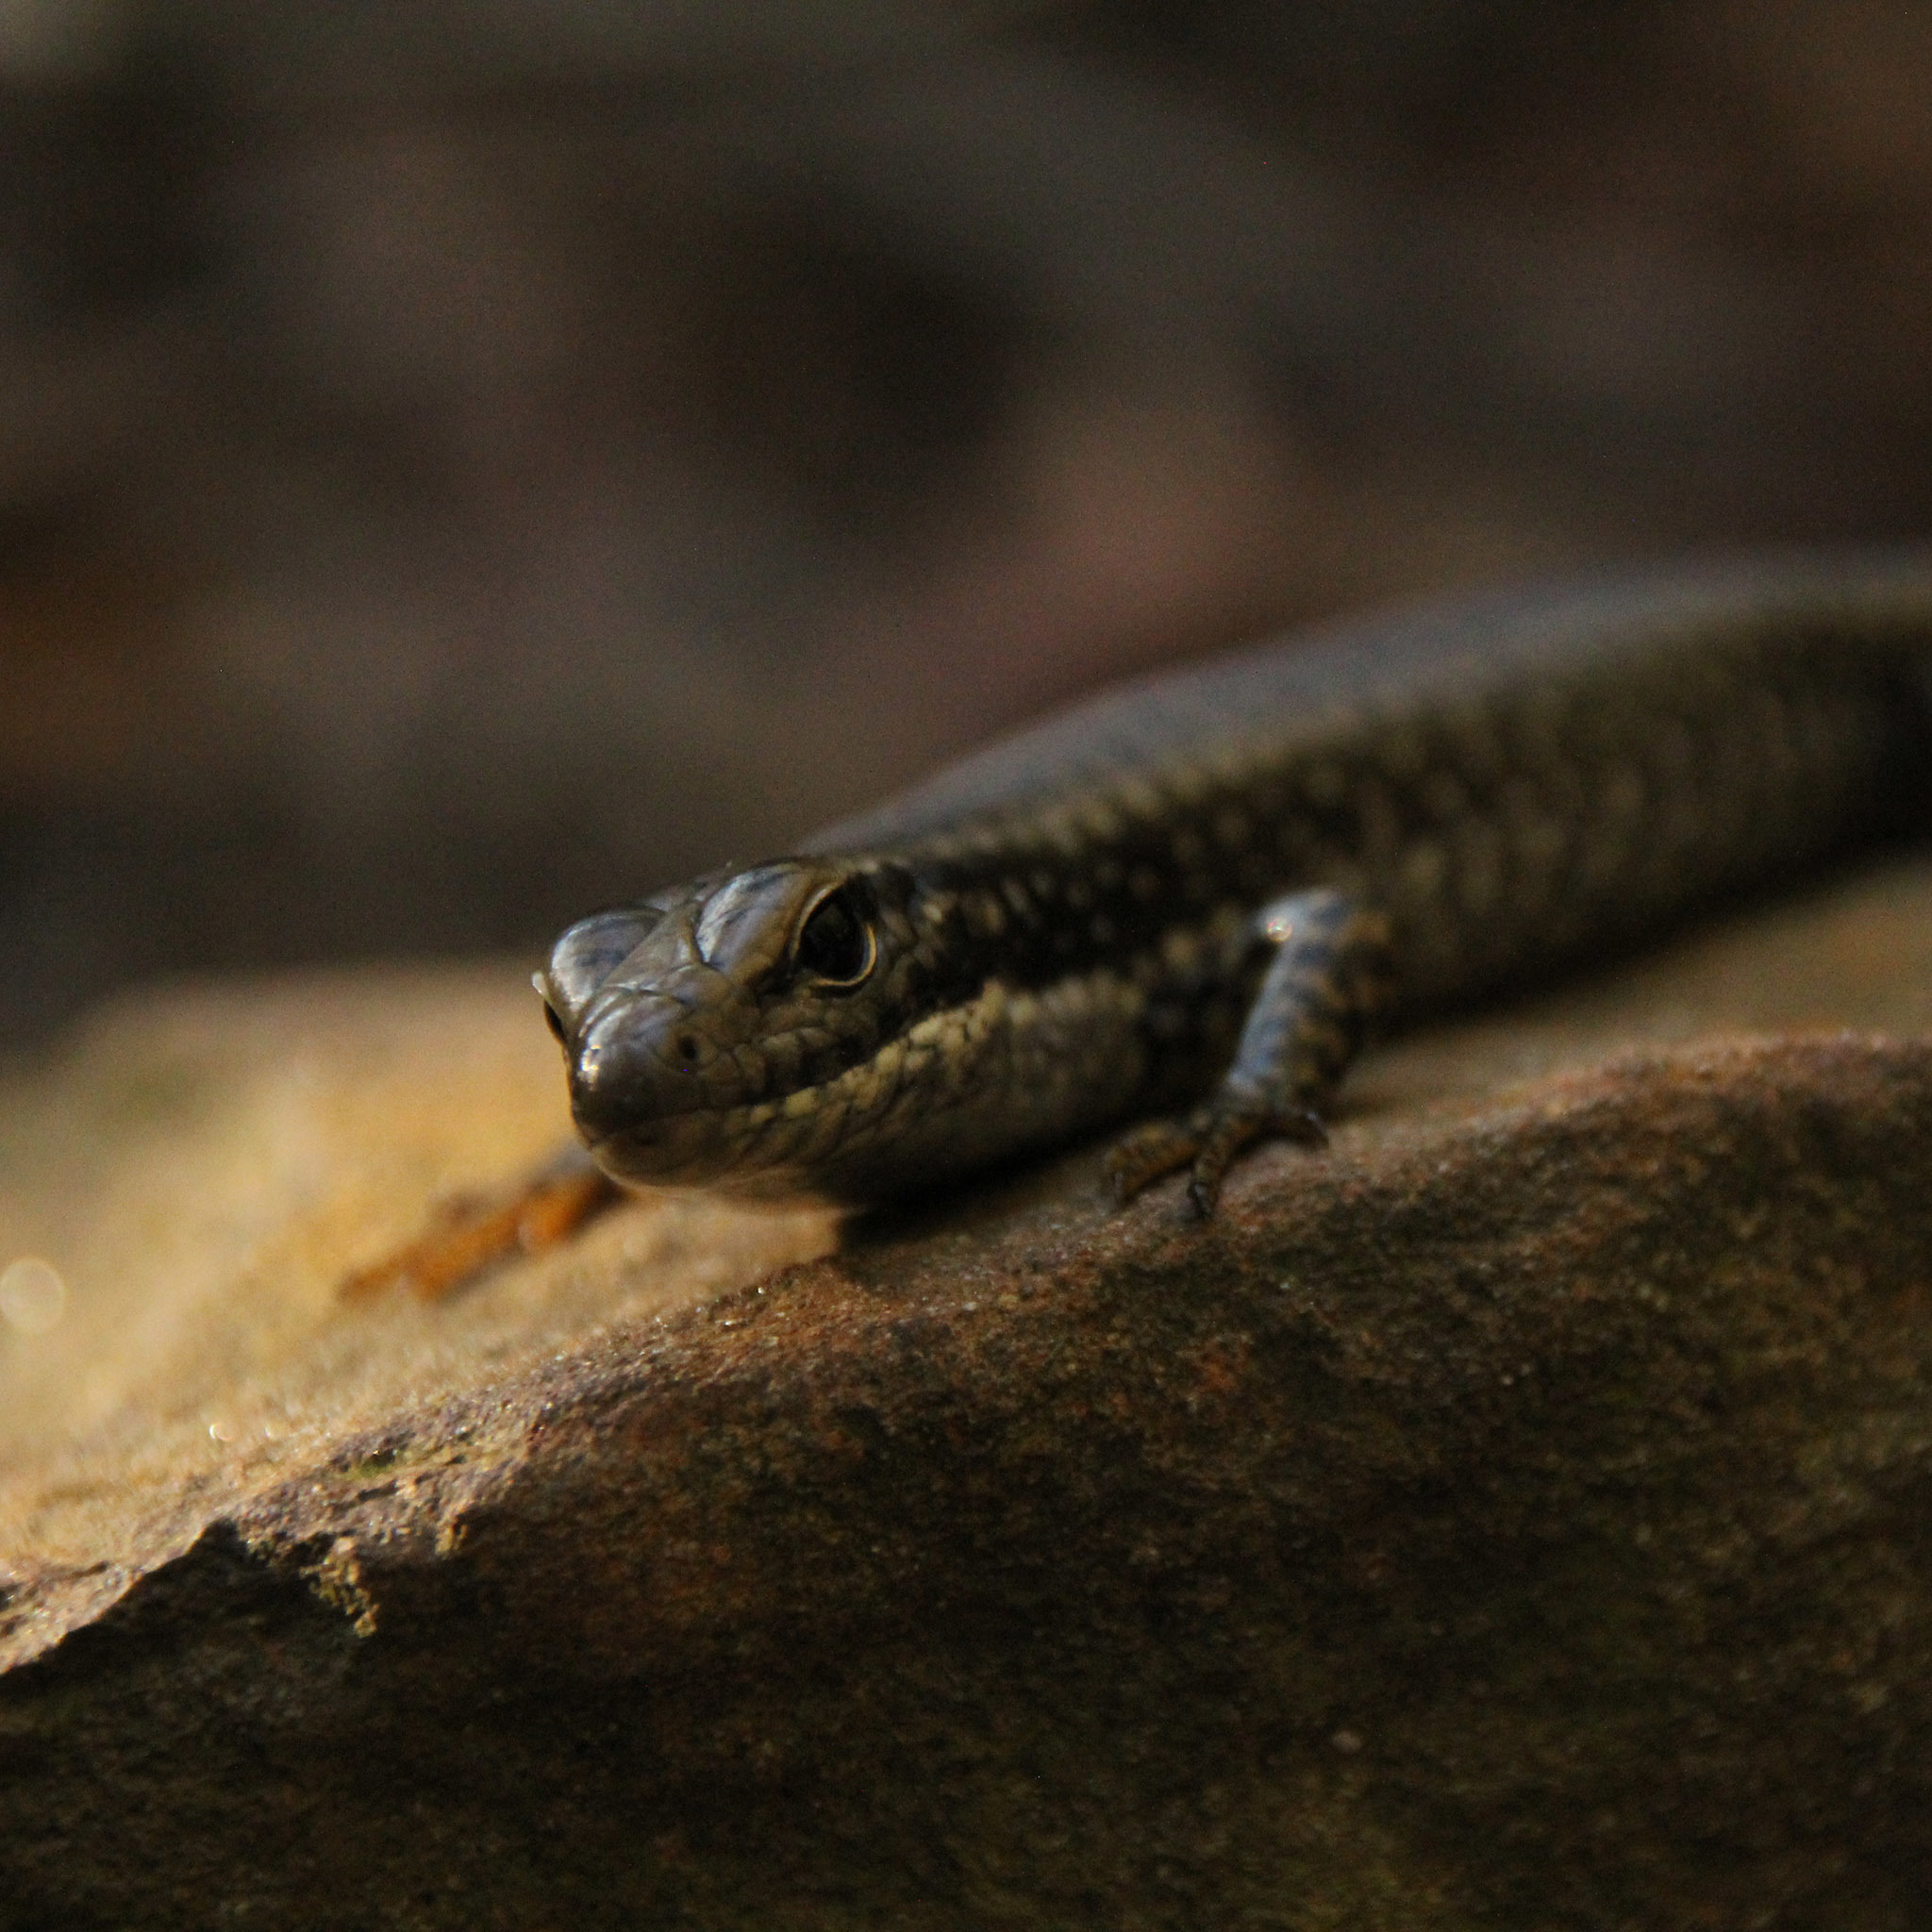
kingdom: Animalia
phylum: Chordata
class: Squamata
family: Scincidae
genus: Eulamprus
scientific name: Eulamprus heatwolei
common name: Warm-temperate water-skink
